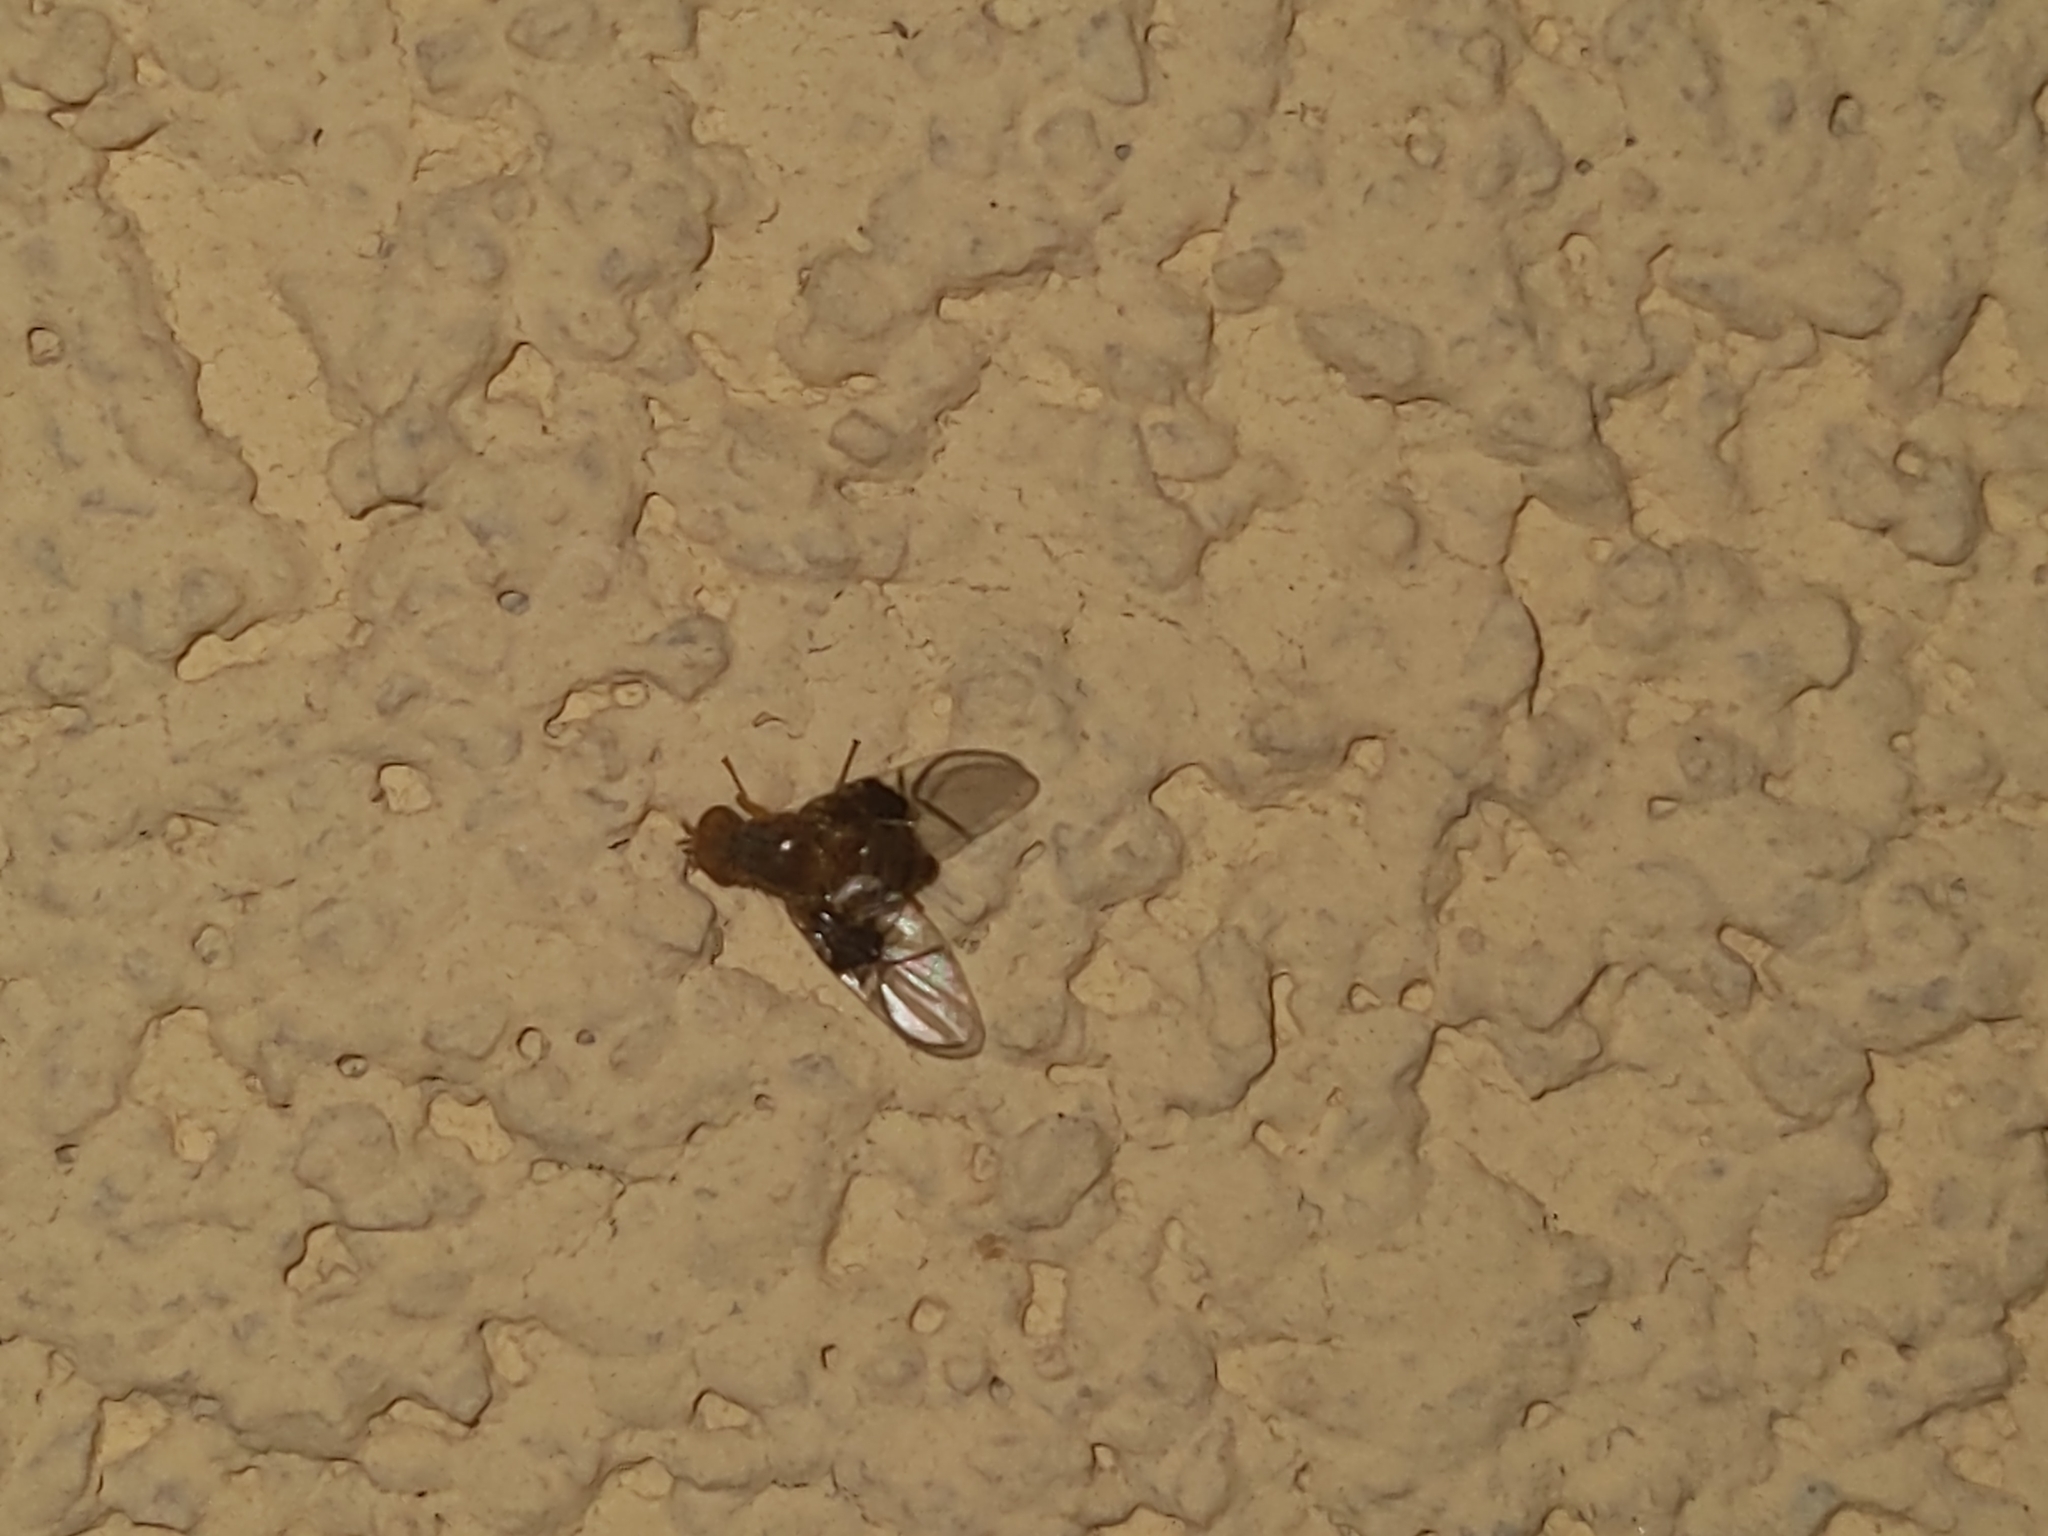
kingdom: Animalia
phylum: Arthropoda
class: Insecta
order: Diptera
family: Tephritidae
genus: Anomoia
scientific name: Anomoia purmunda
